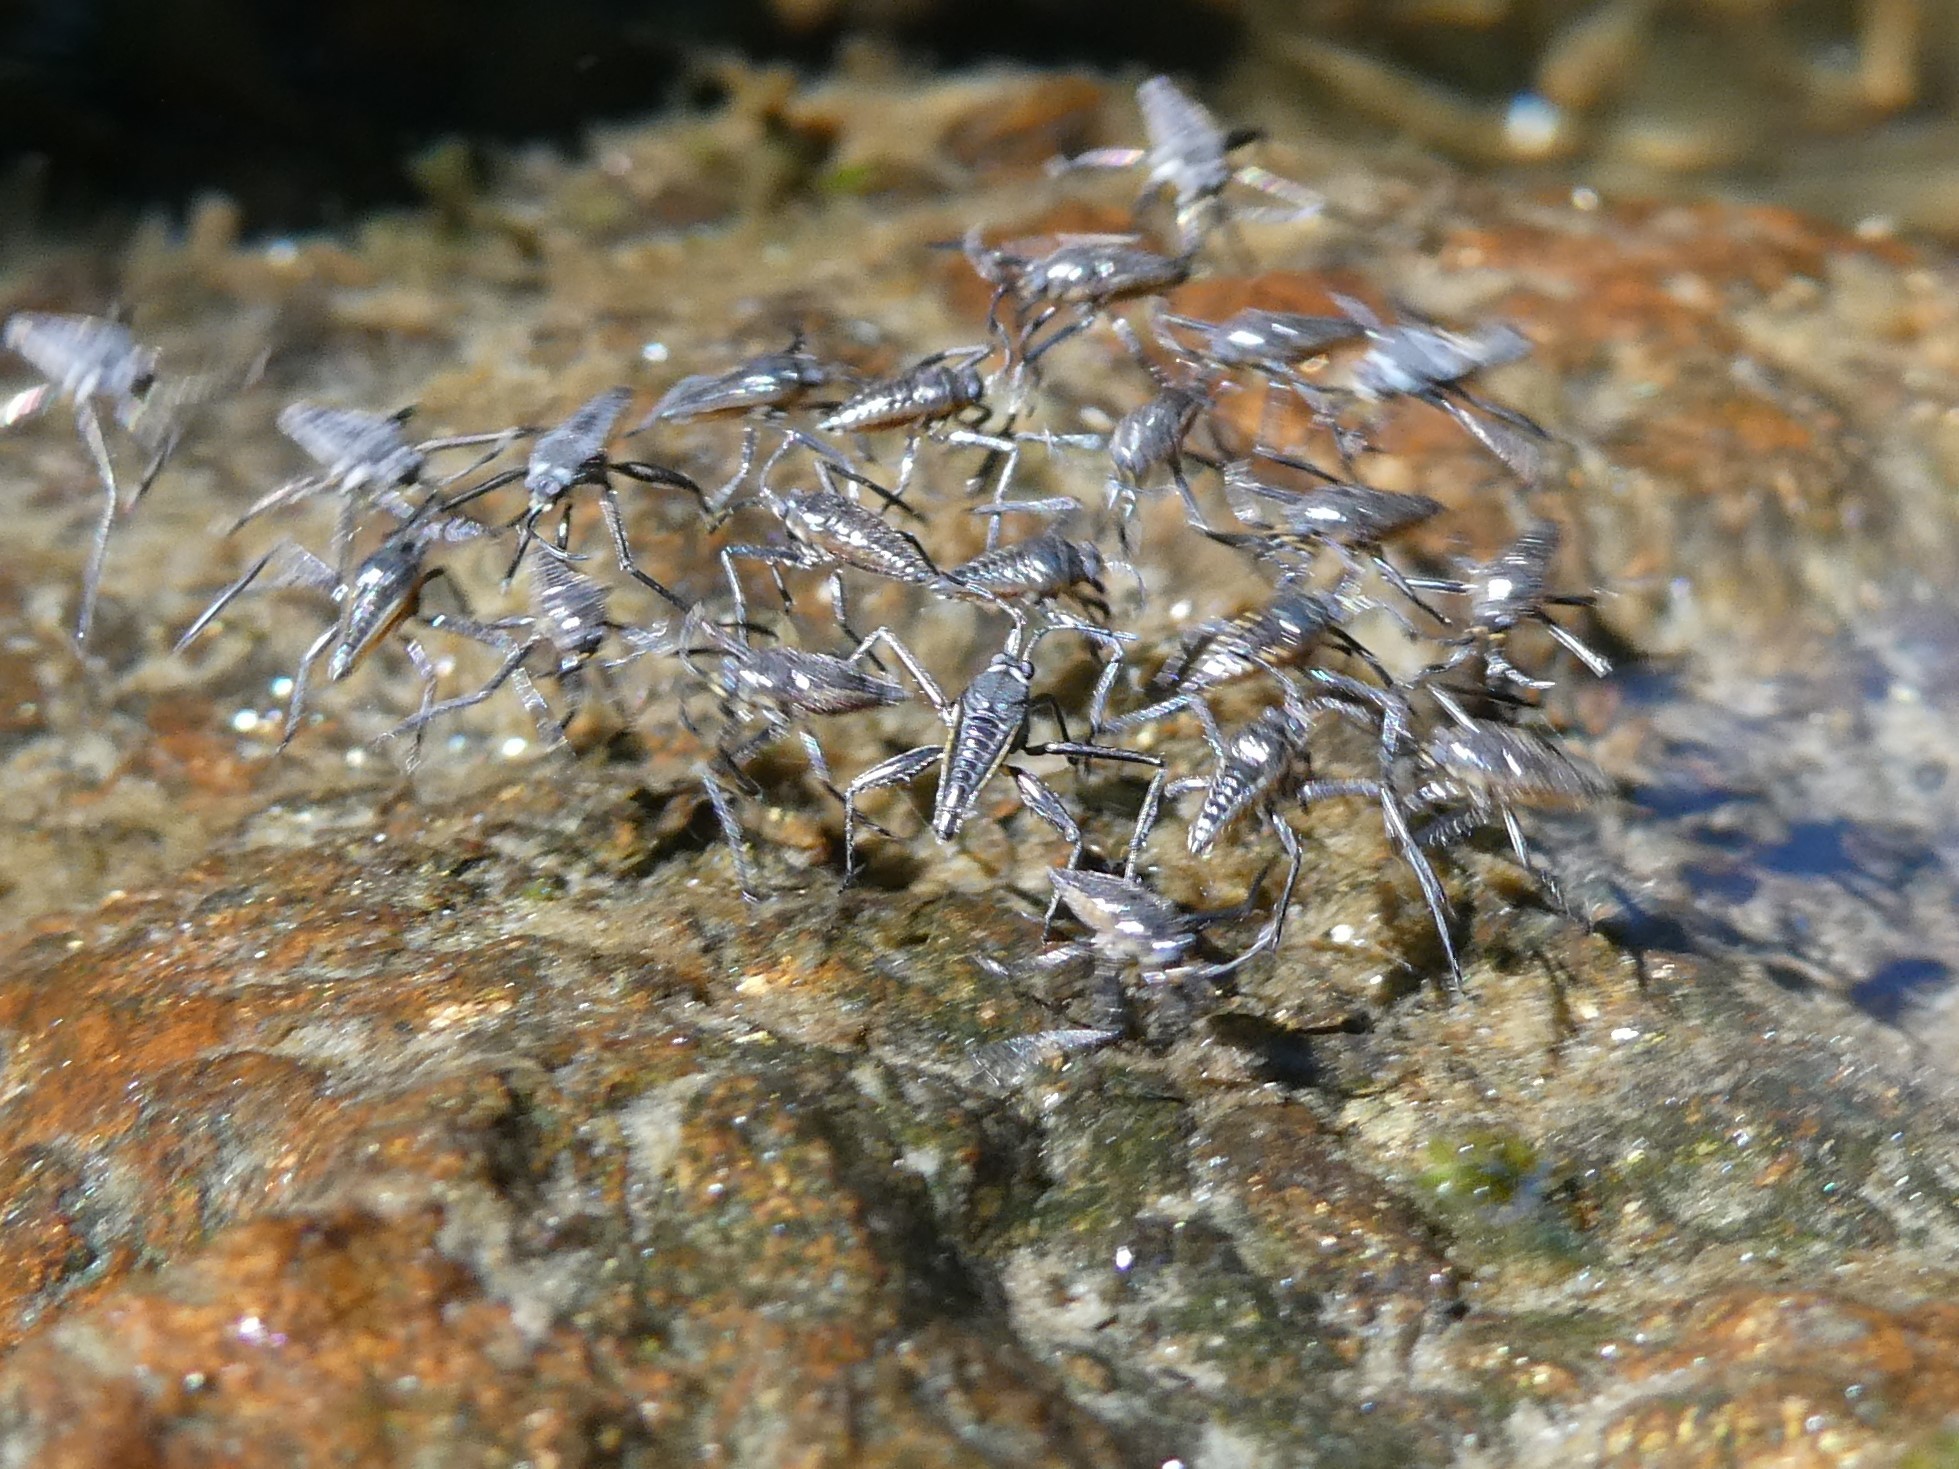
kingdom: Animalia
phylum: Arthropoda
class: Insecta
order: Hemiptera
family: Veliidae
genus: Rhagovelia
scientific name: Rhagovelia obesa
